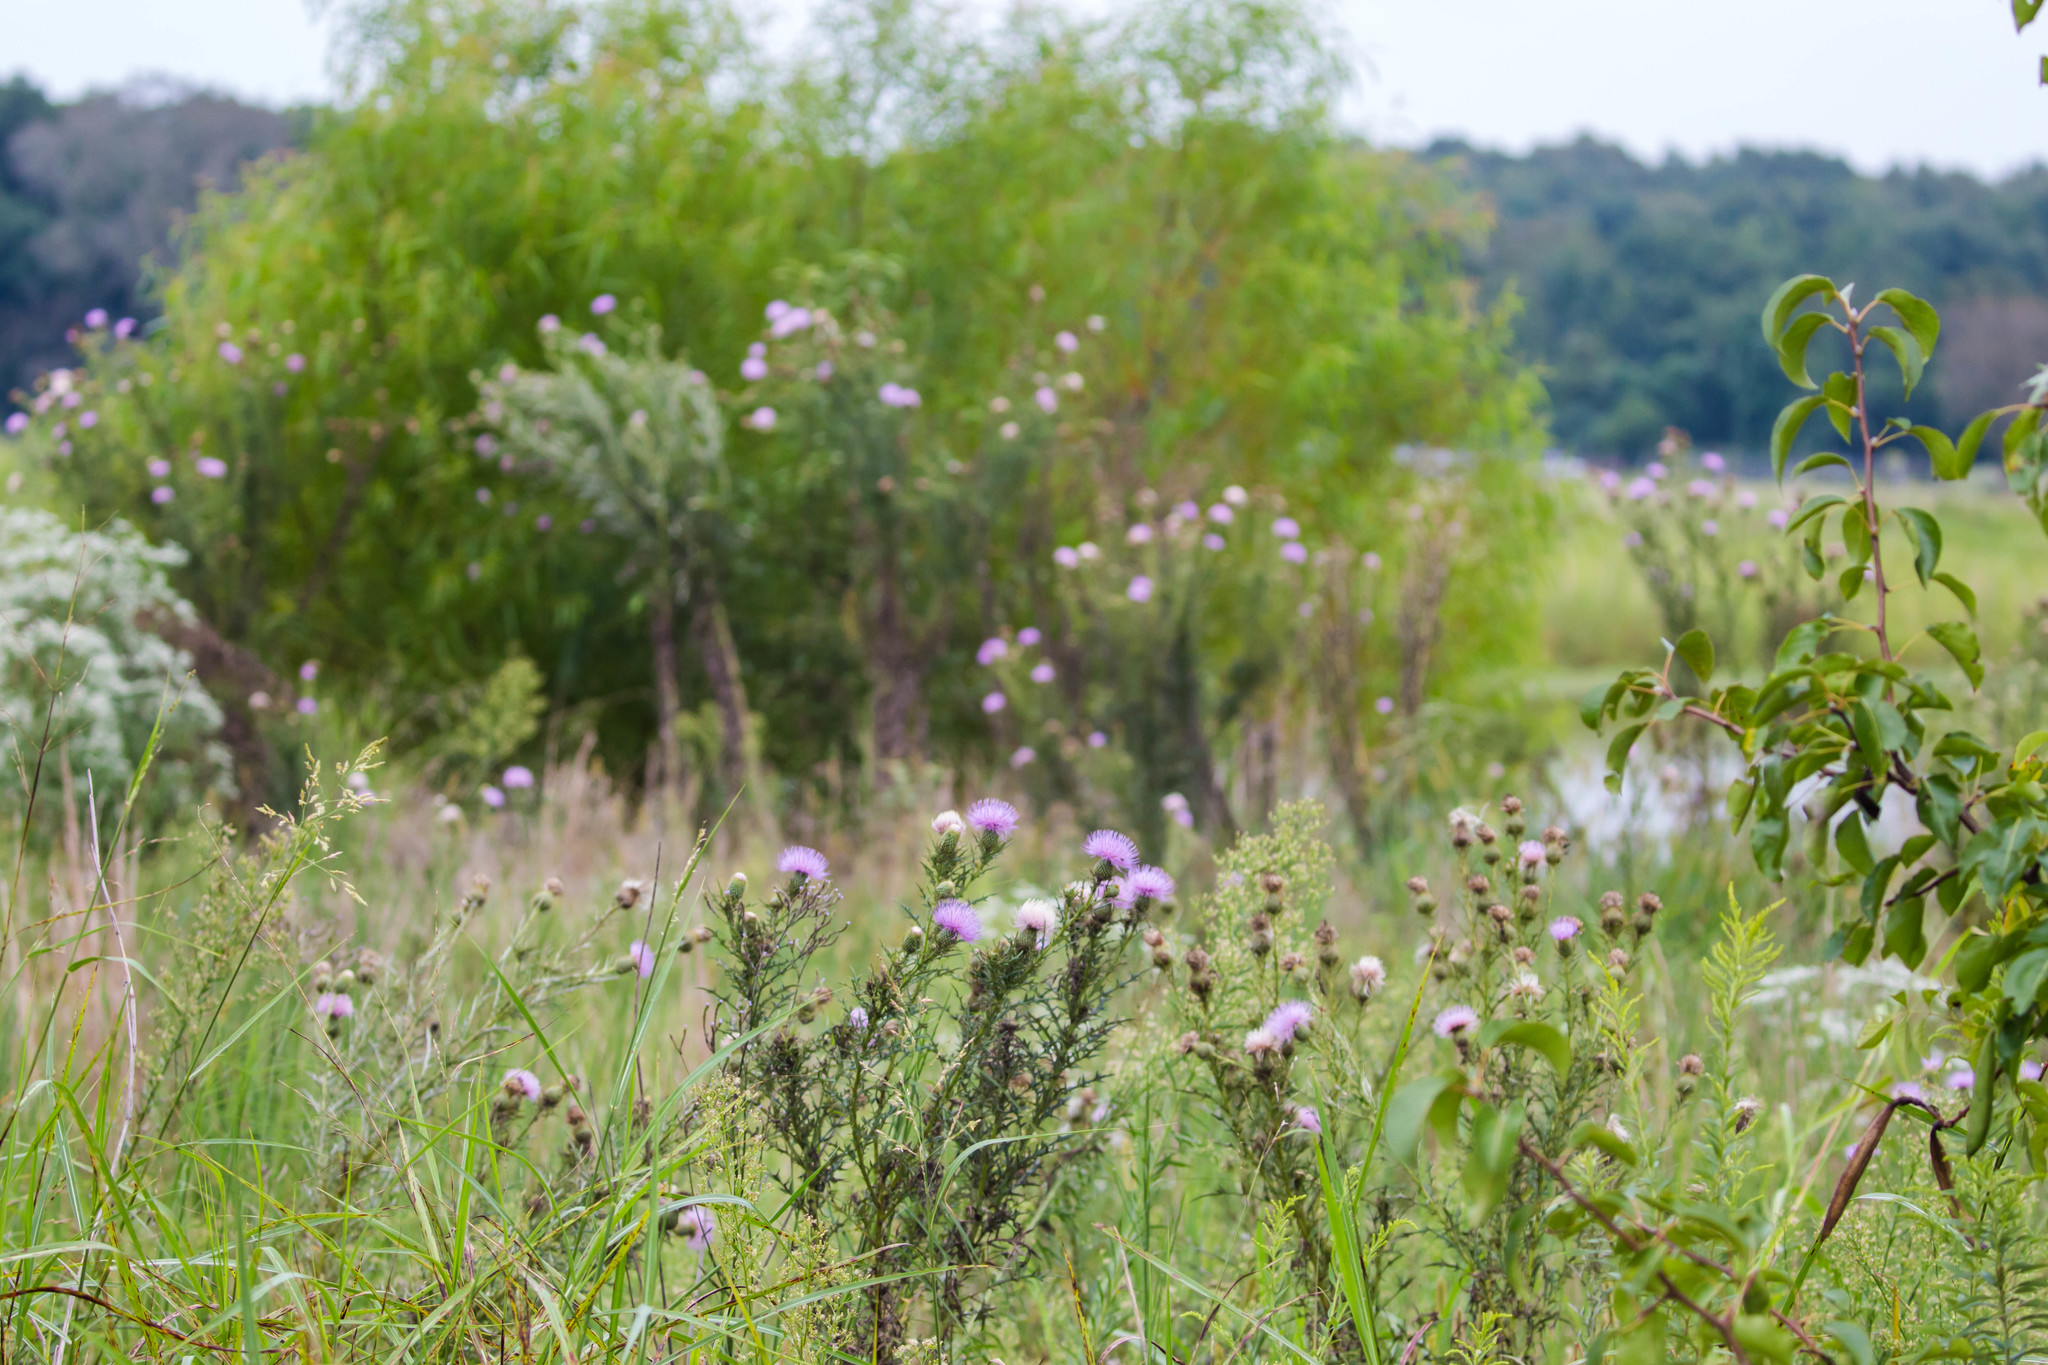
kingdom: Plantae
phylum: Tracheophyta
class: Magnoliopsida
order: Asterales
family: Asteraceae
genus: Cirsium
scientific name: Cirsium discolor
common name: Field thistle
